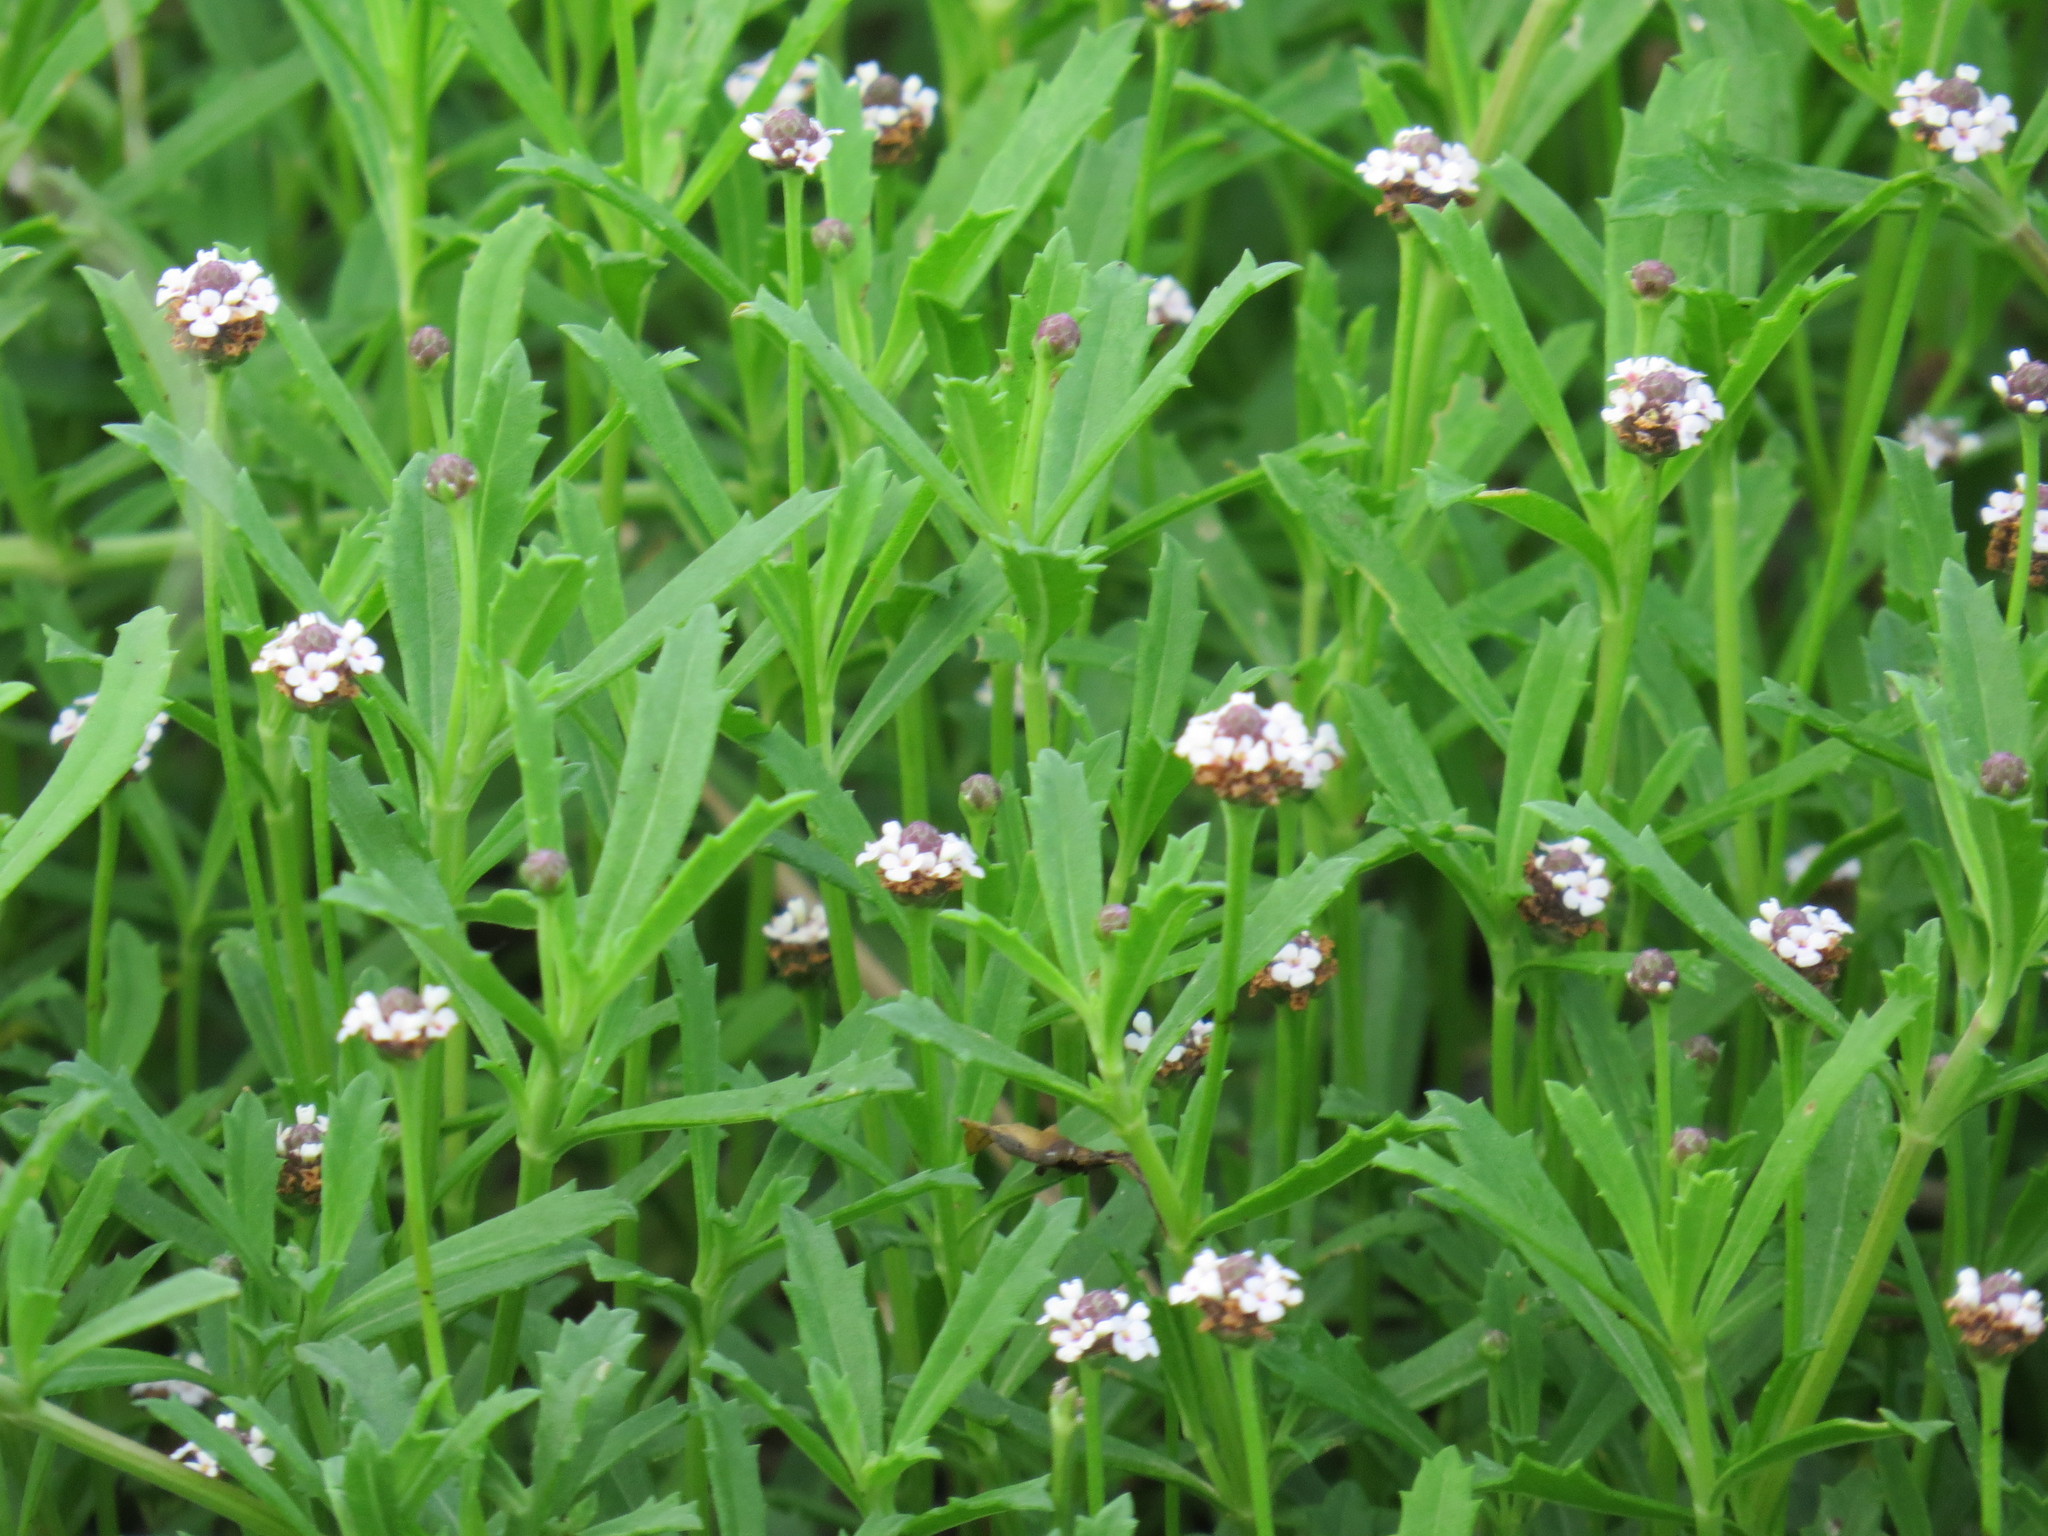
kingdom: Plantae
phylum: Tracheophyta
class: Magnoliopsida
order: Lamiales
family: Verbenaceae
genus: Phyla
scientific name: Phyla nodiflora
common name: Frogfruit
